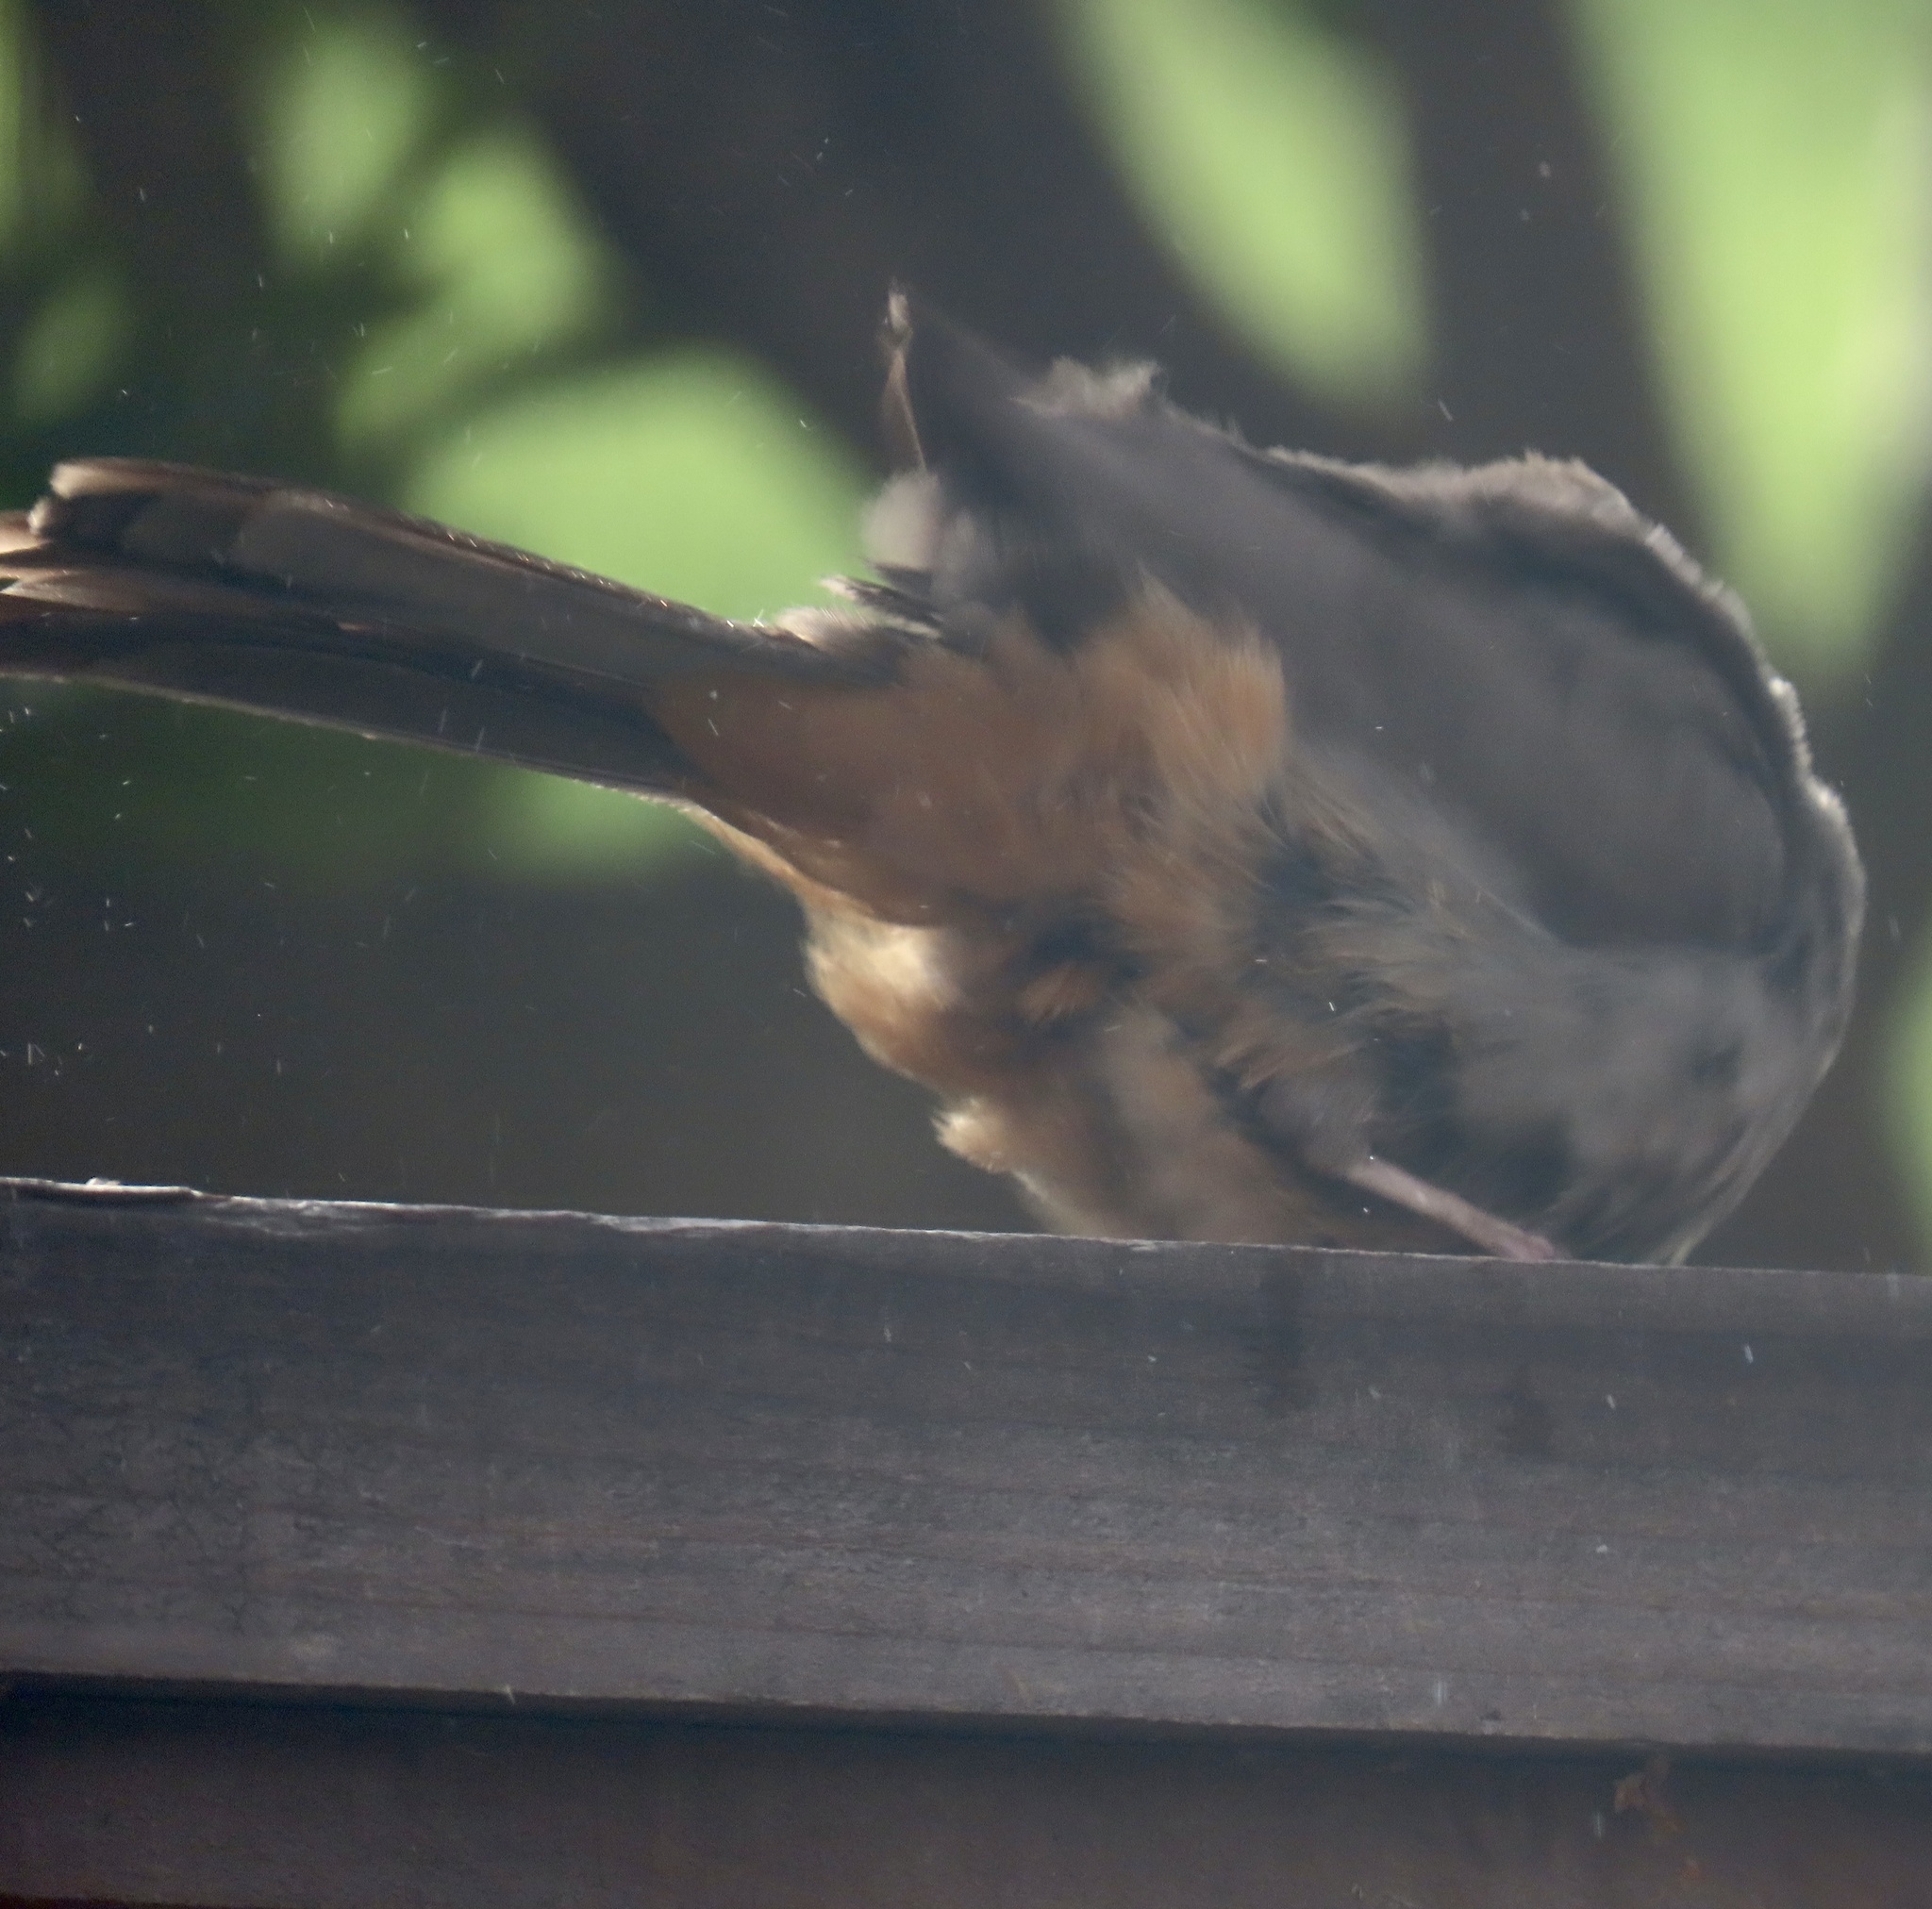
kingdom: Animalia
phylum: Chordata
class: Aves
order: Passeriformes
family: Passerellidae
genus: Melozone
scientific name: Melozone crissalis
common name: California towhee
